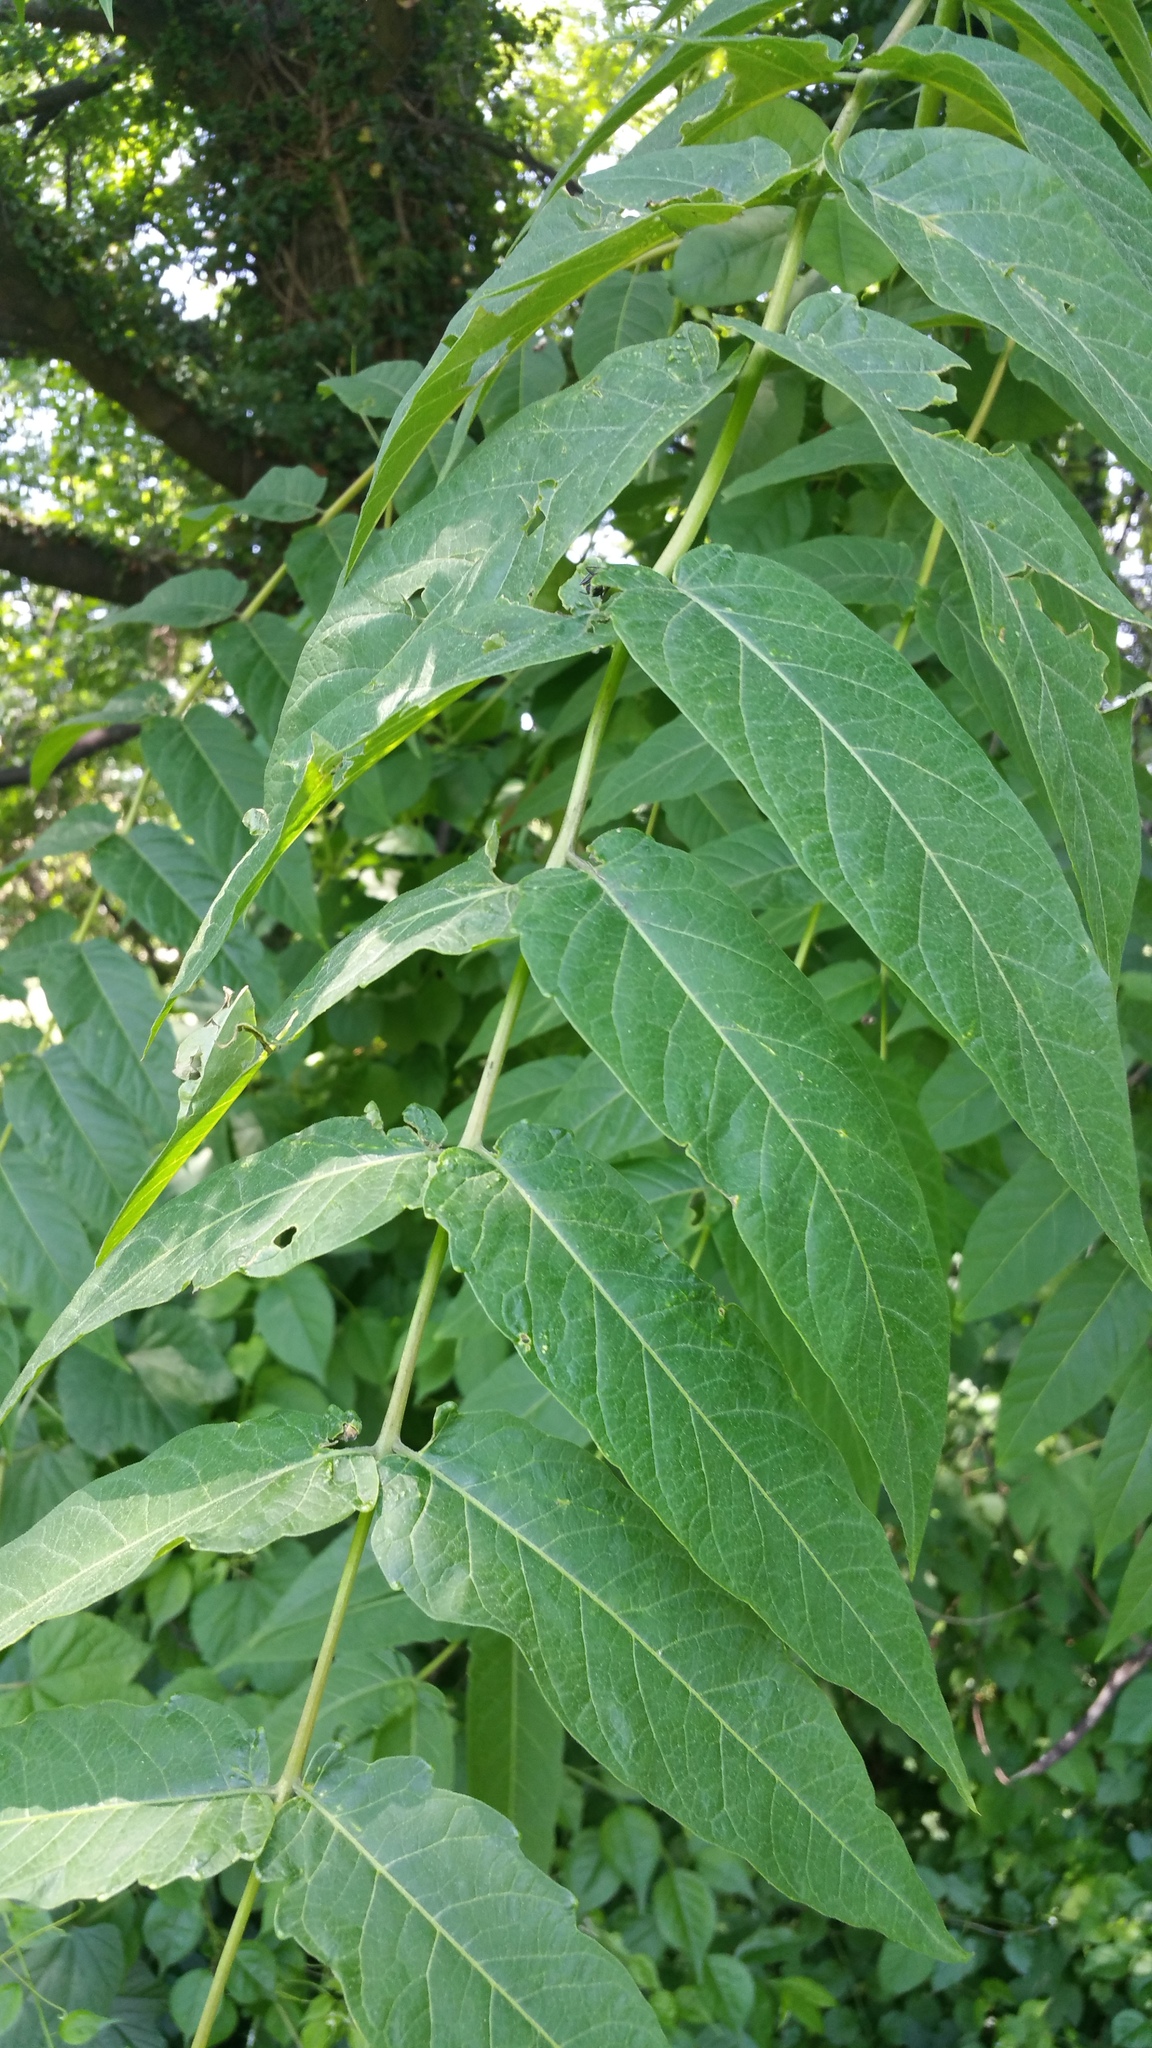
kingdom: Plantae
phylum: Tracheophyta
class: Magnoliopsida
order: Sapindales
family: Simaroubaceae
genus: Ailanthus
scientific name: Ailanthus altissima
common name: Tree-of-heaven
